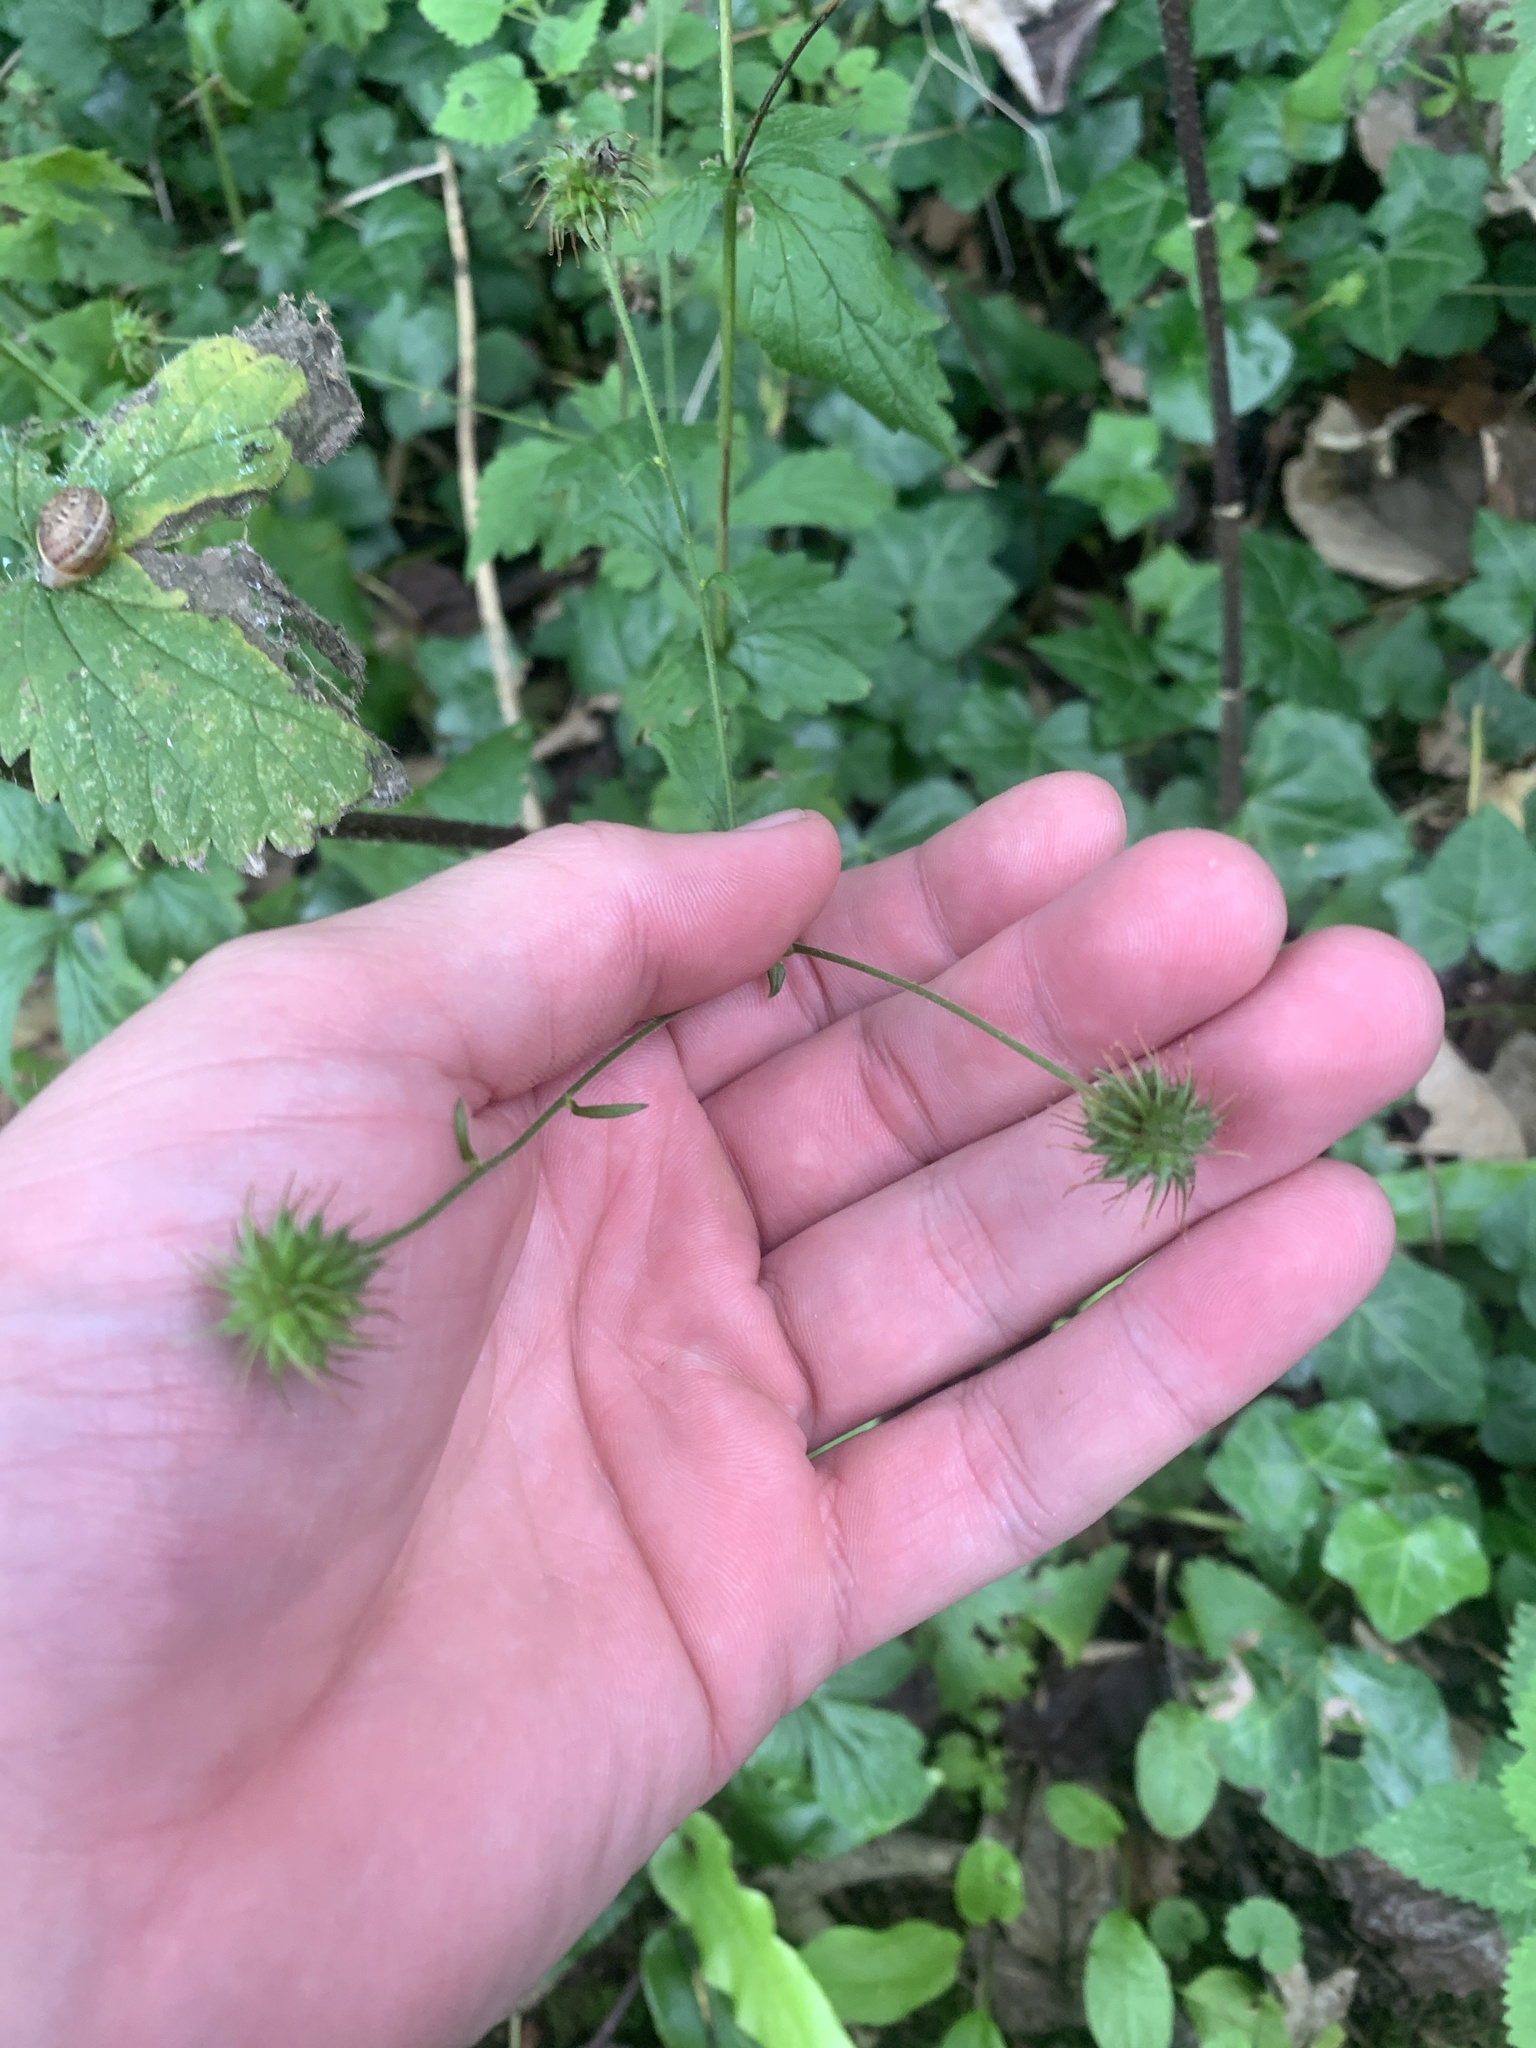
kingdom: Plantae
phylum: Tracheophyta
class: Magnoliopsida
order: Rosales
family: Rosaceae
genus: Geum
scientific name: Geum urbanum
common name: Wood avens
